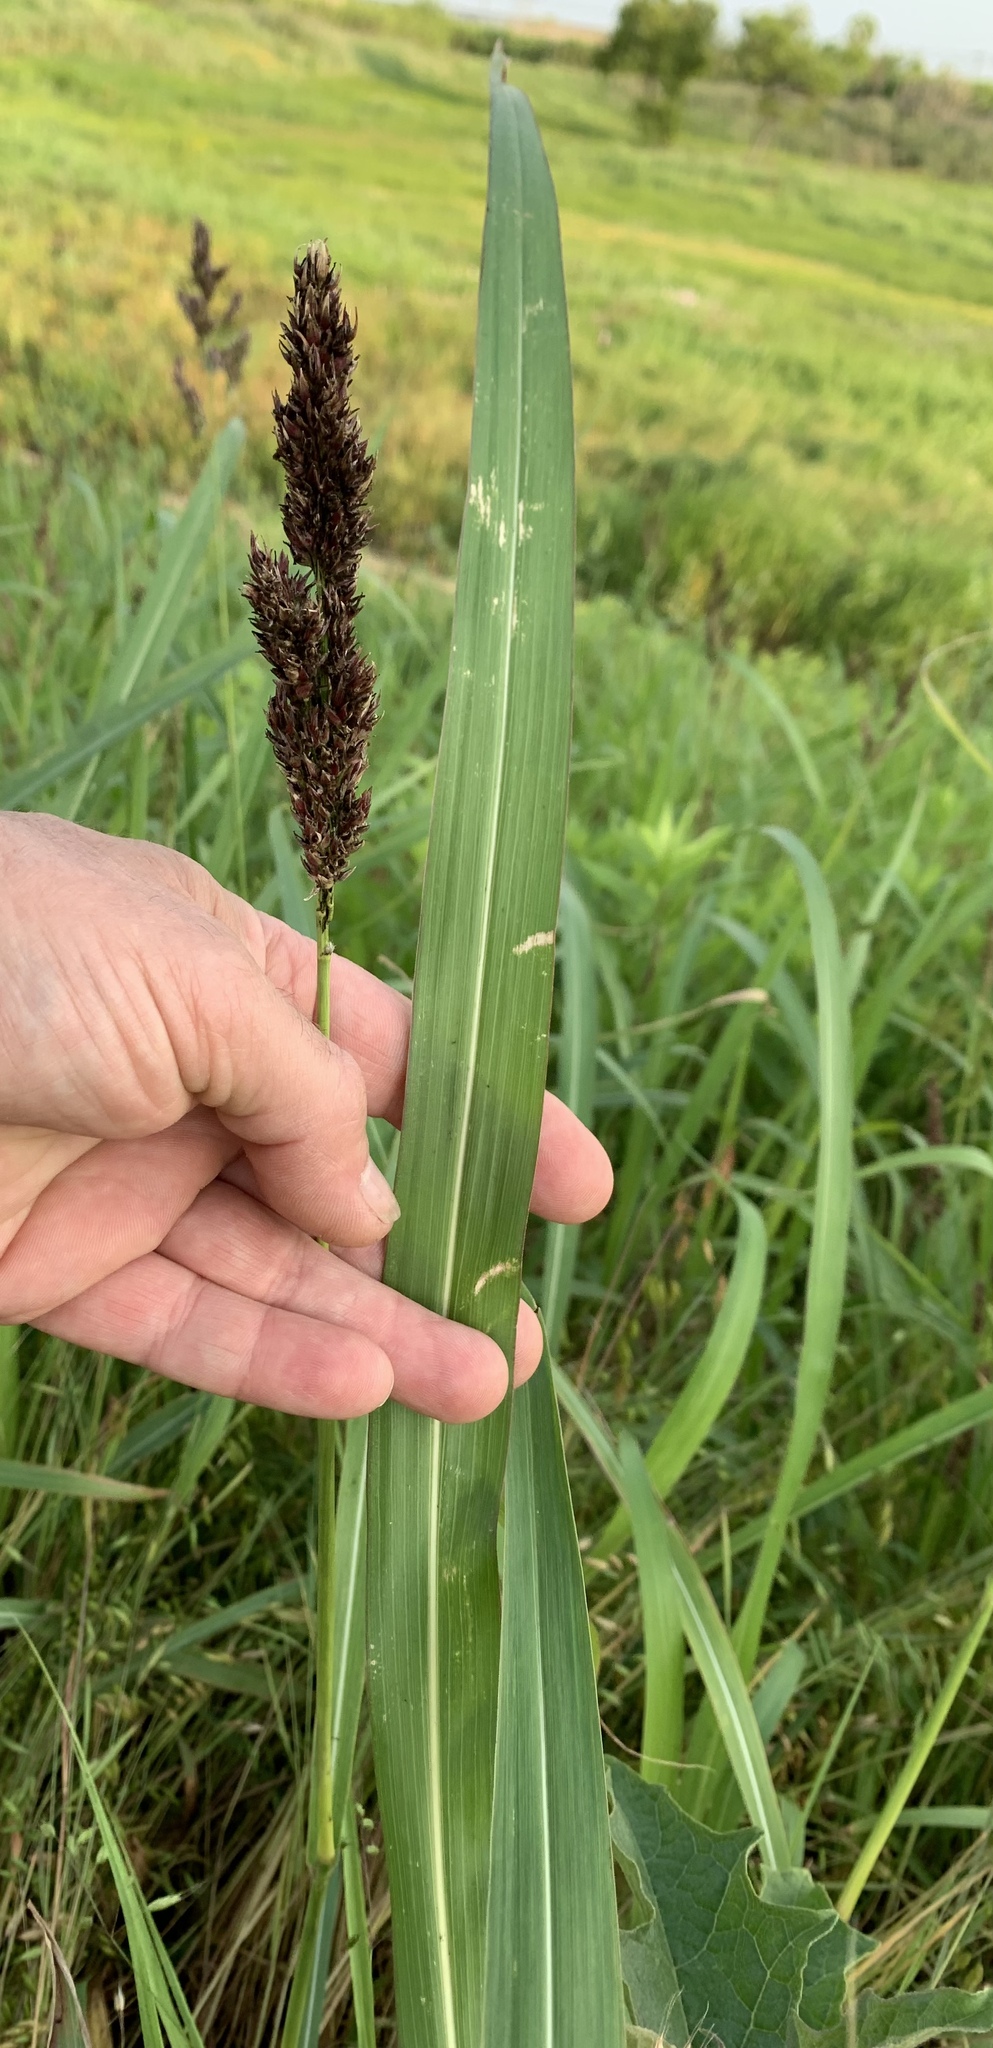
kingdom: Plantae
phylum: Tracheophyta
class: Liliopsida
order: Poales
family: Poaceae
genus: Sorghum
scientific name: Sorghum halepense
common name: Johnson-grass
